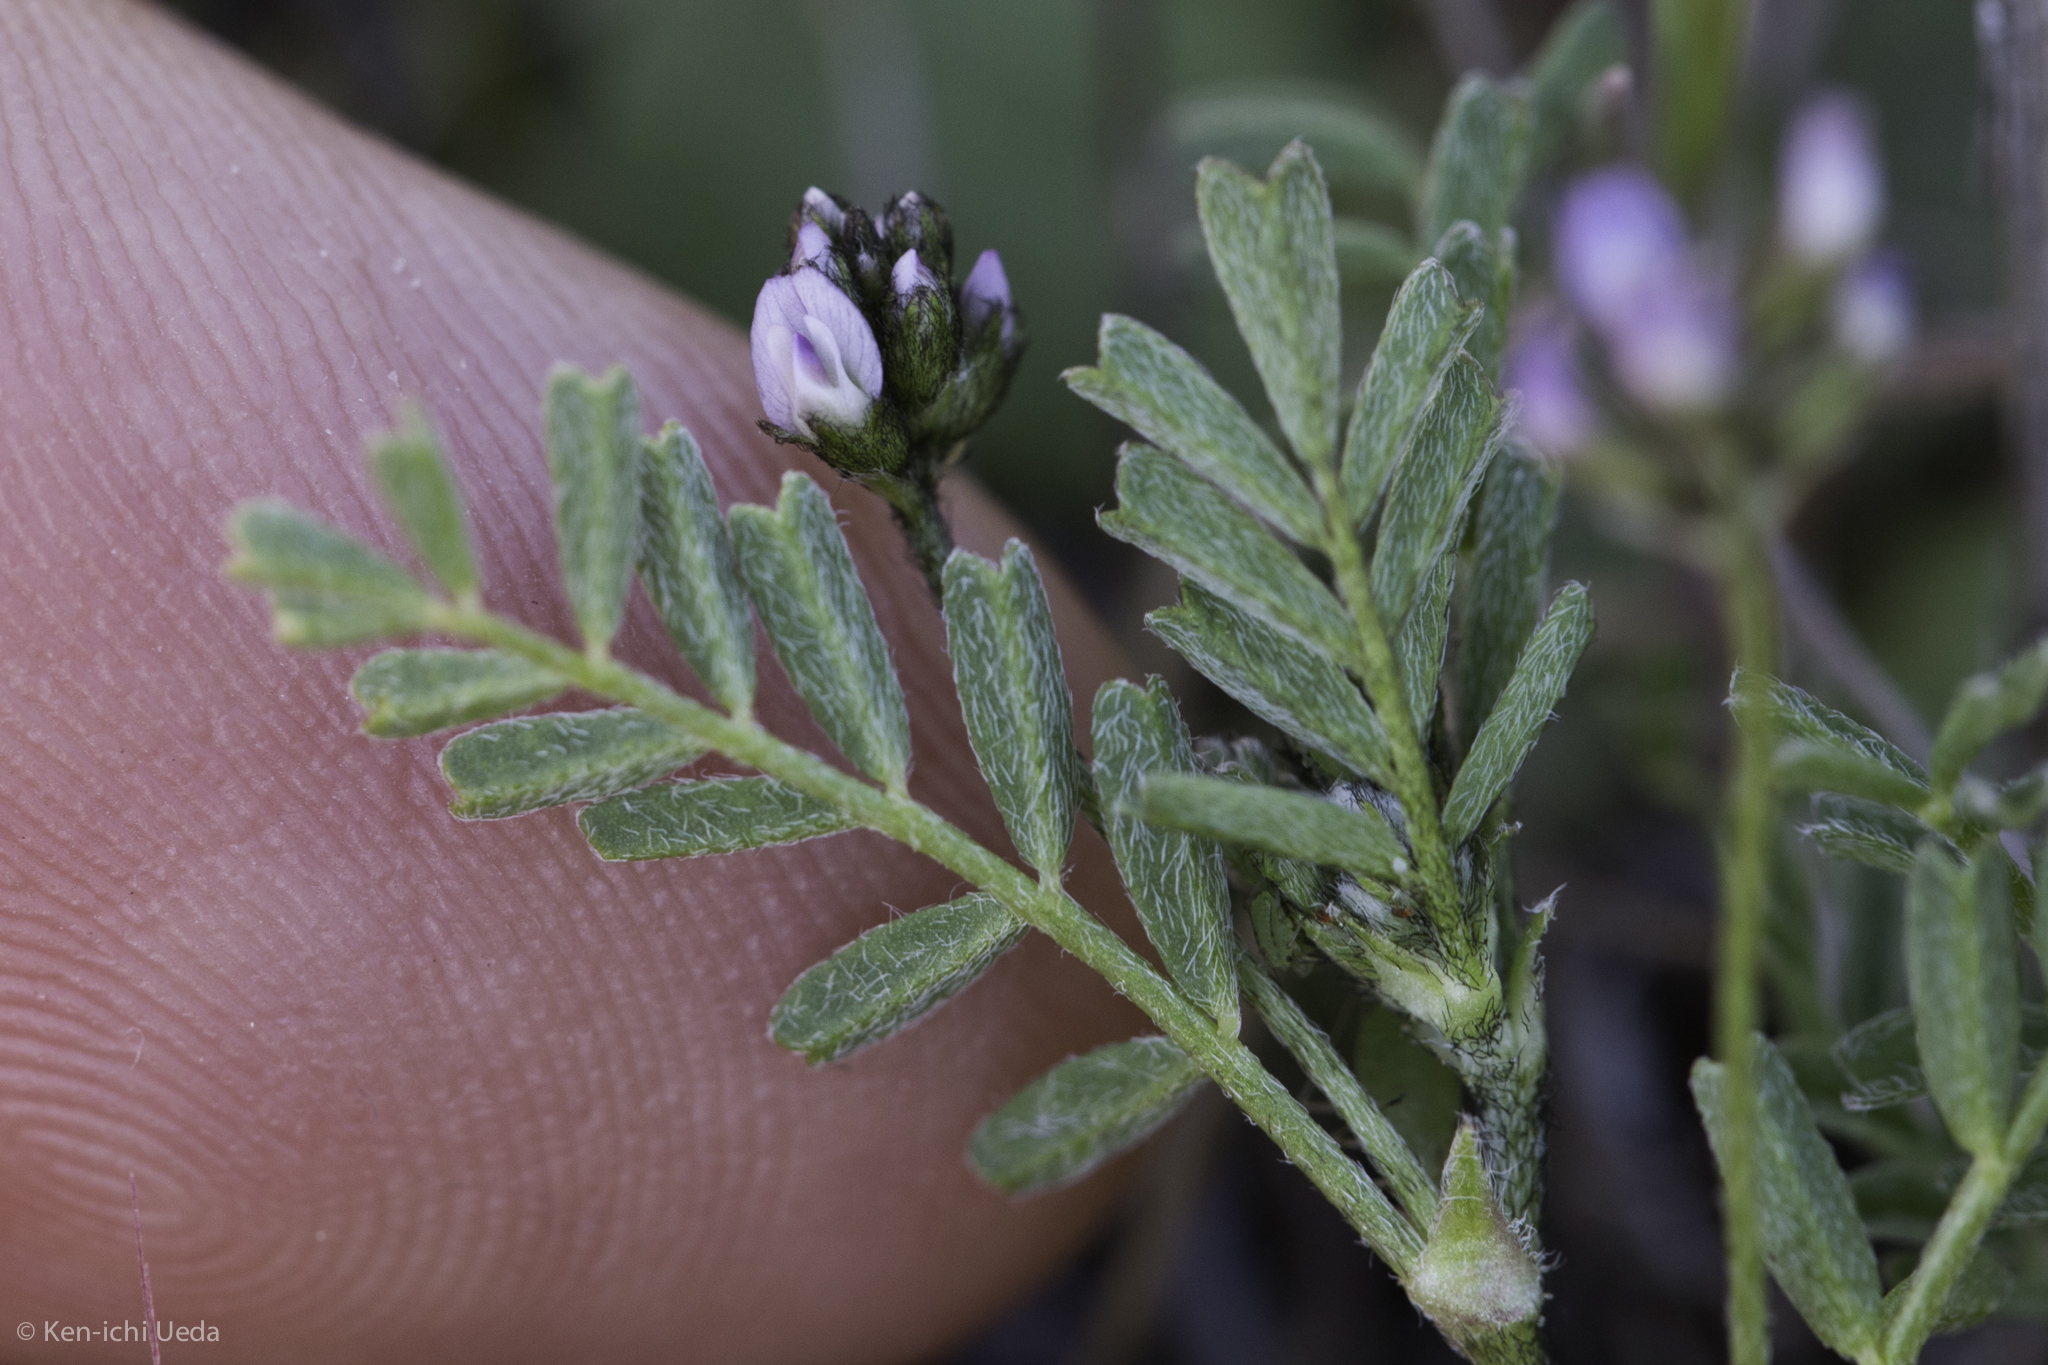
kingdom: Plantae
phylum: Tracheophyta
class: Magnoliopsida
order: Fabales
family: Fabaceae
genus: Astragalus
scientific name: Astragalus gambelianus
